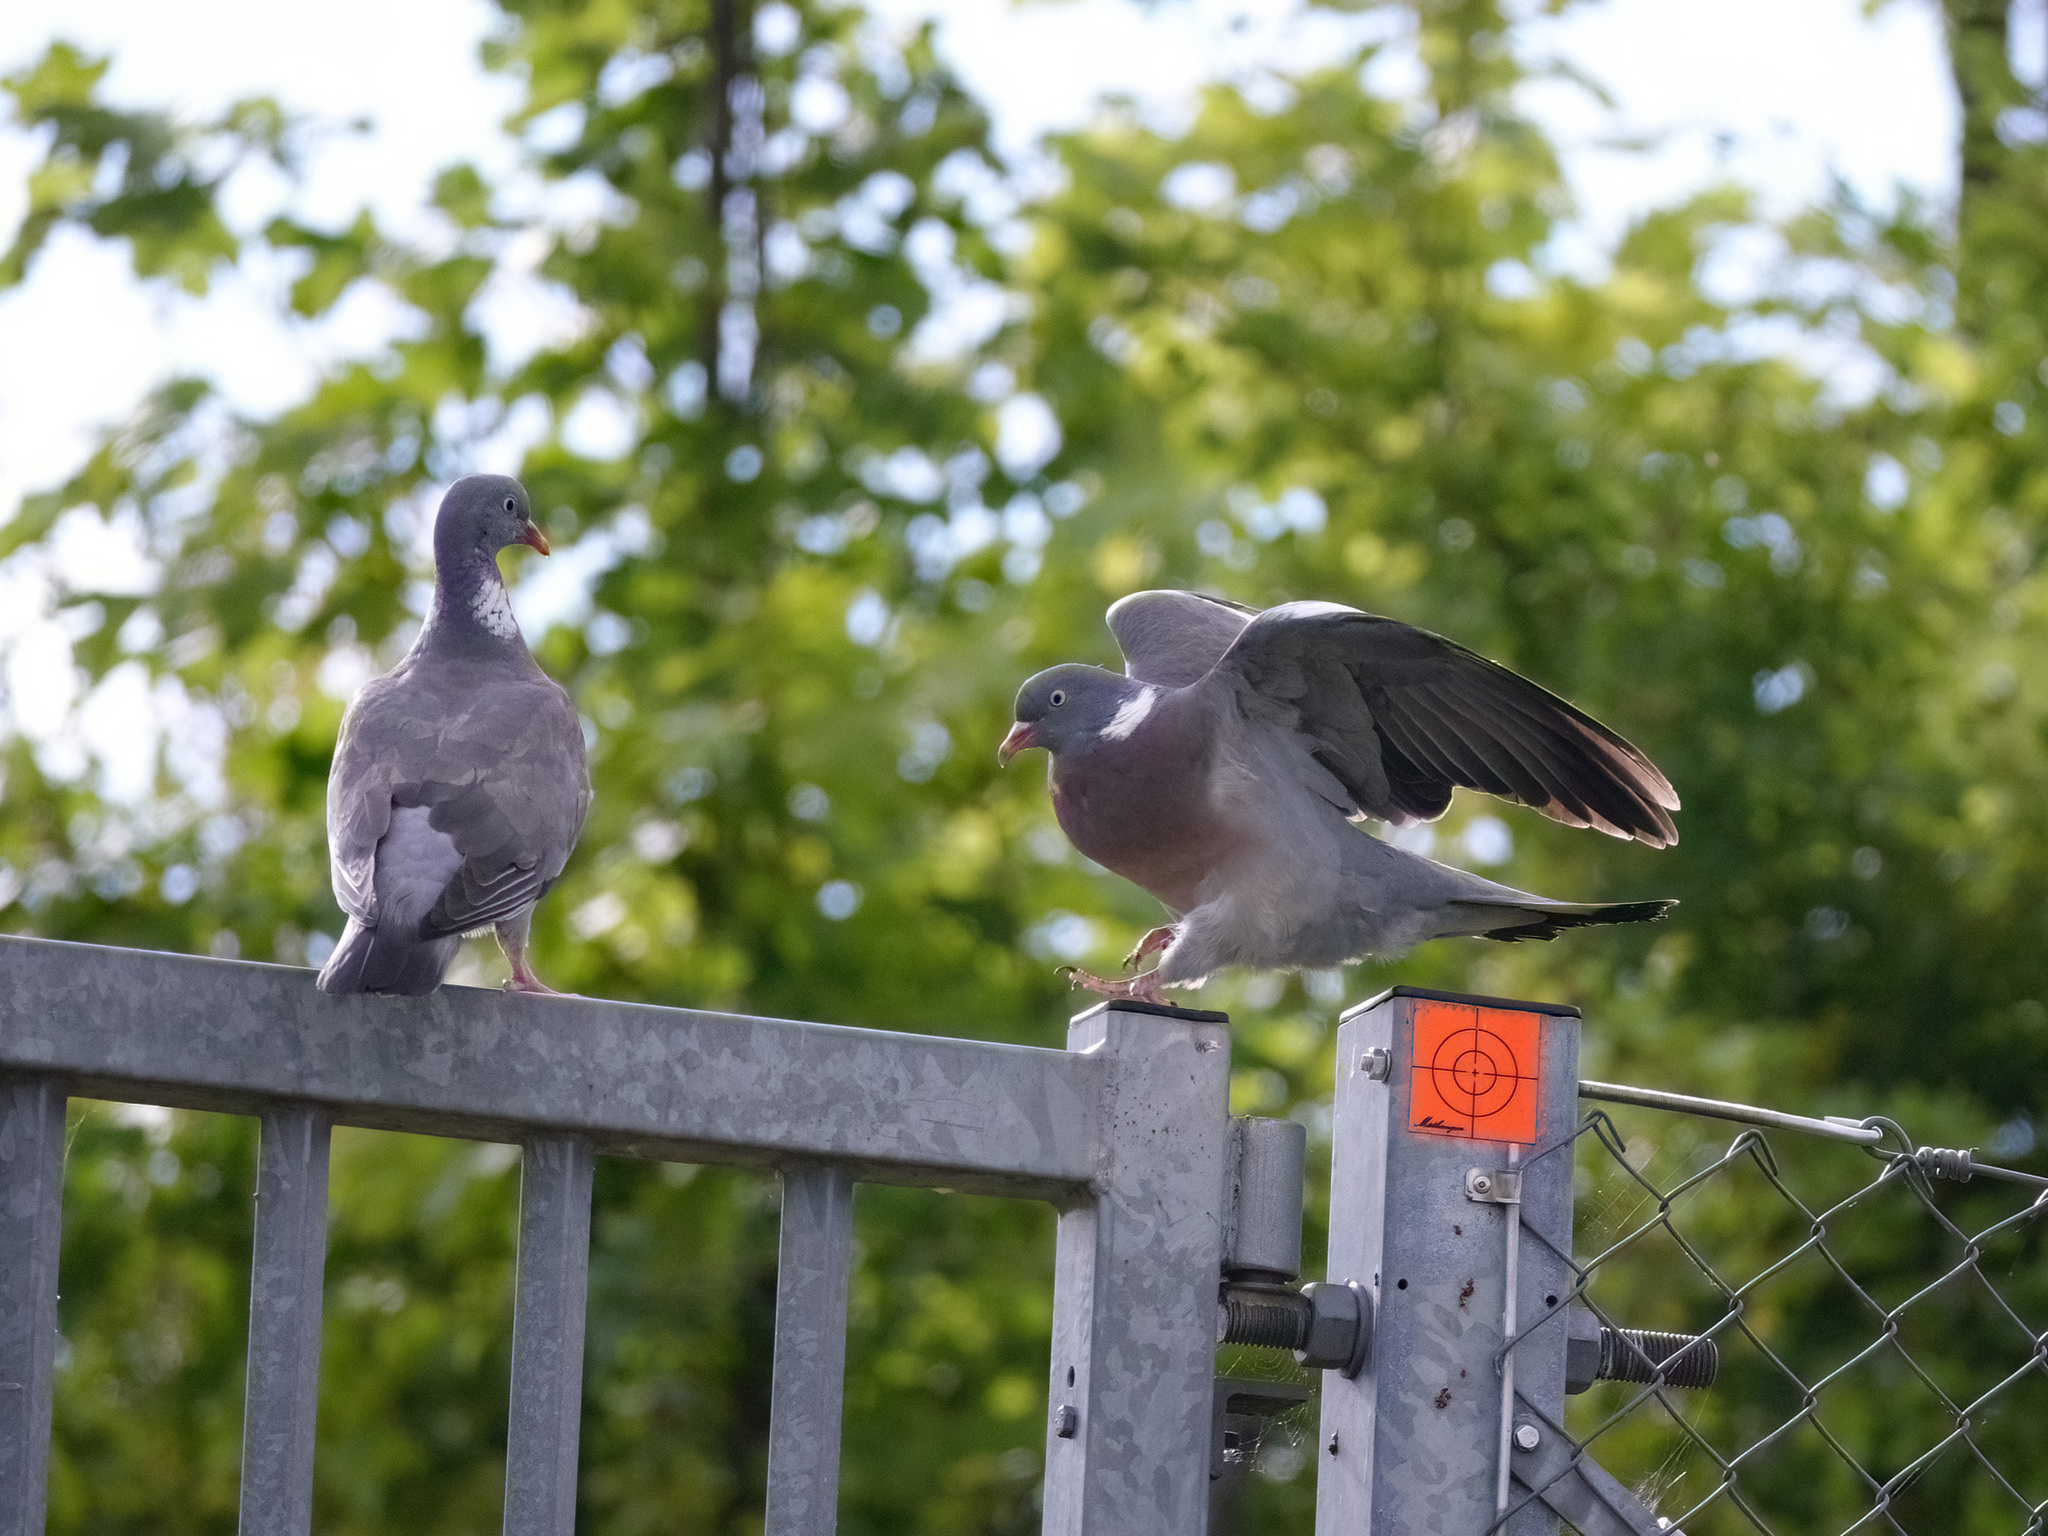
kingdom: Animalia
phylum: Chordata
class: Aves
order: Columbiformes
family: Columbidae
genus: Columba
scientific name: Columba palumbus
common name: Common wood pigeon
